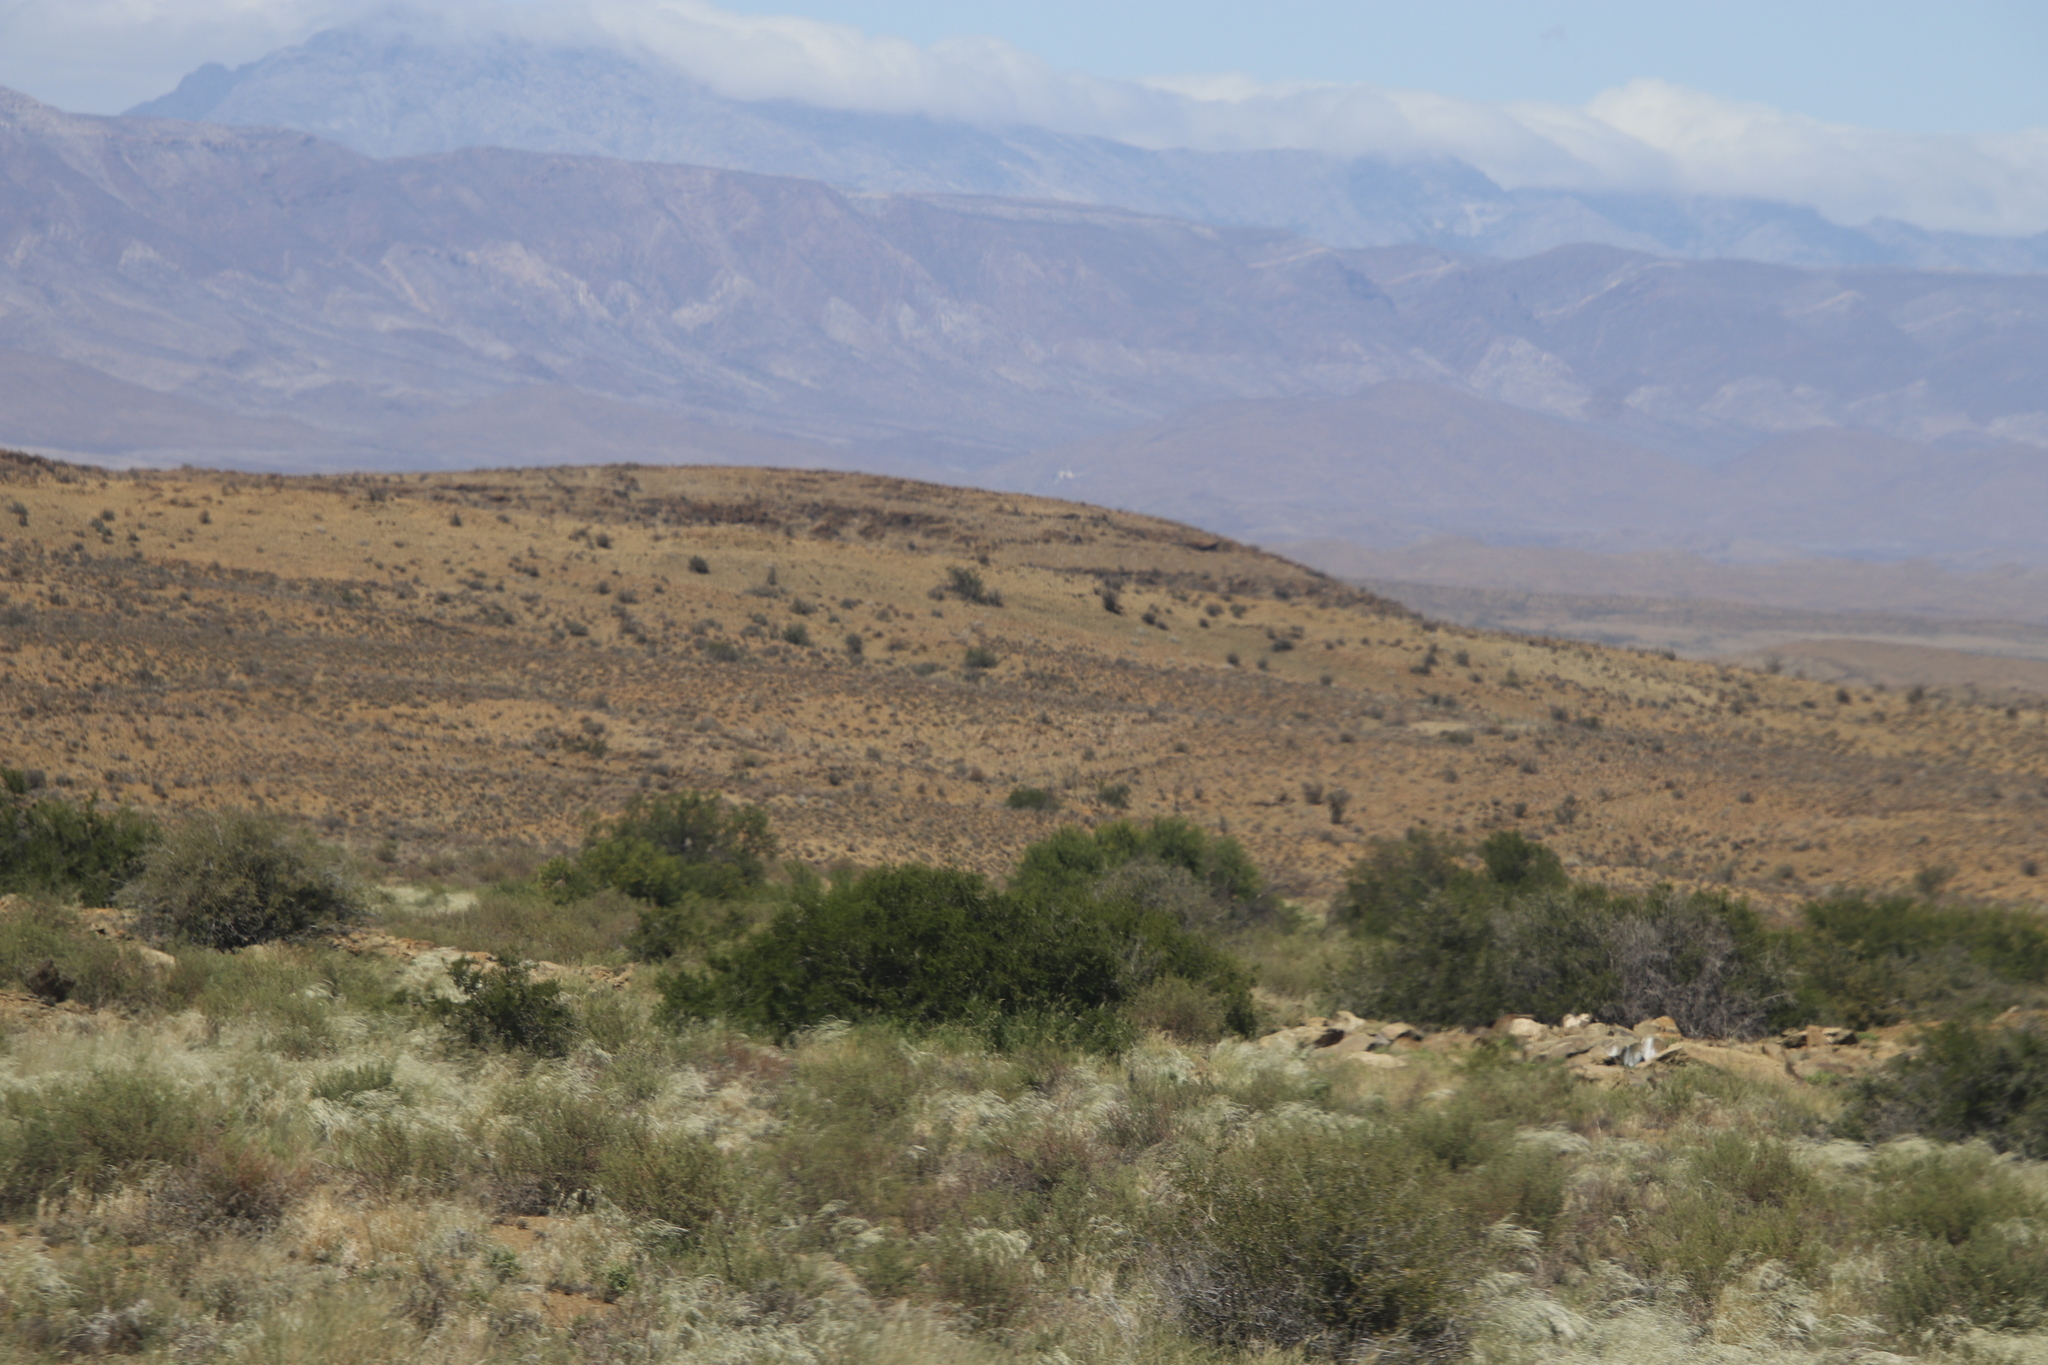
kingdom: Plantae
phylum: Tracheophyta
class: Magnoliopsida
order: Fabales
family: Fabaceae
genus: Vachellia
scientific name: Vachellia karroo
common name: Sweet thorn
